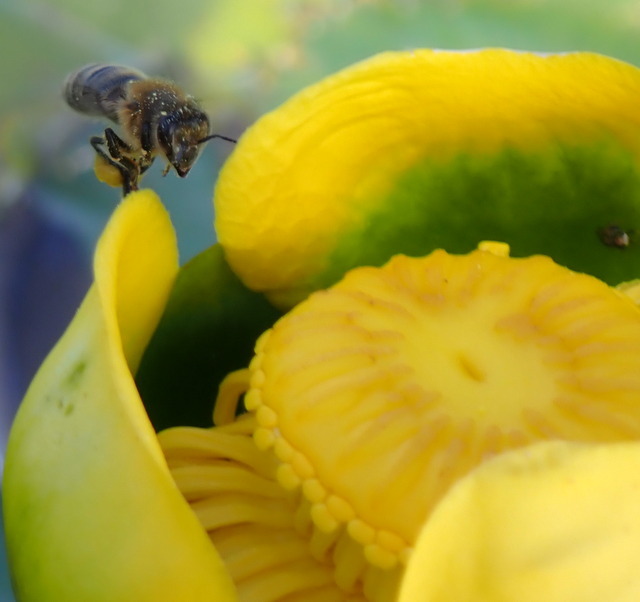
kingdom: Animalia
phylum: Arthropoda
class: Insecta
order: Hymenoptera
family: Apidae
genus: Apis
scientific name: Apis mellifera
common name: Honey bee
